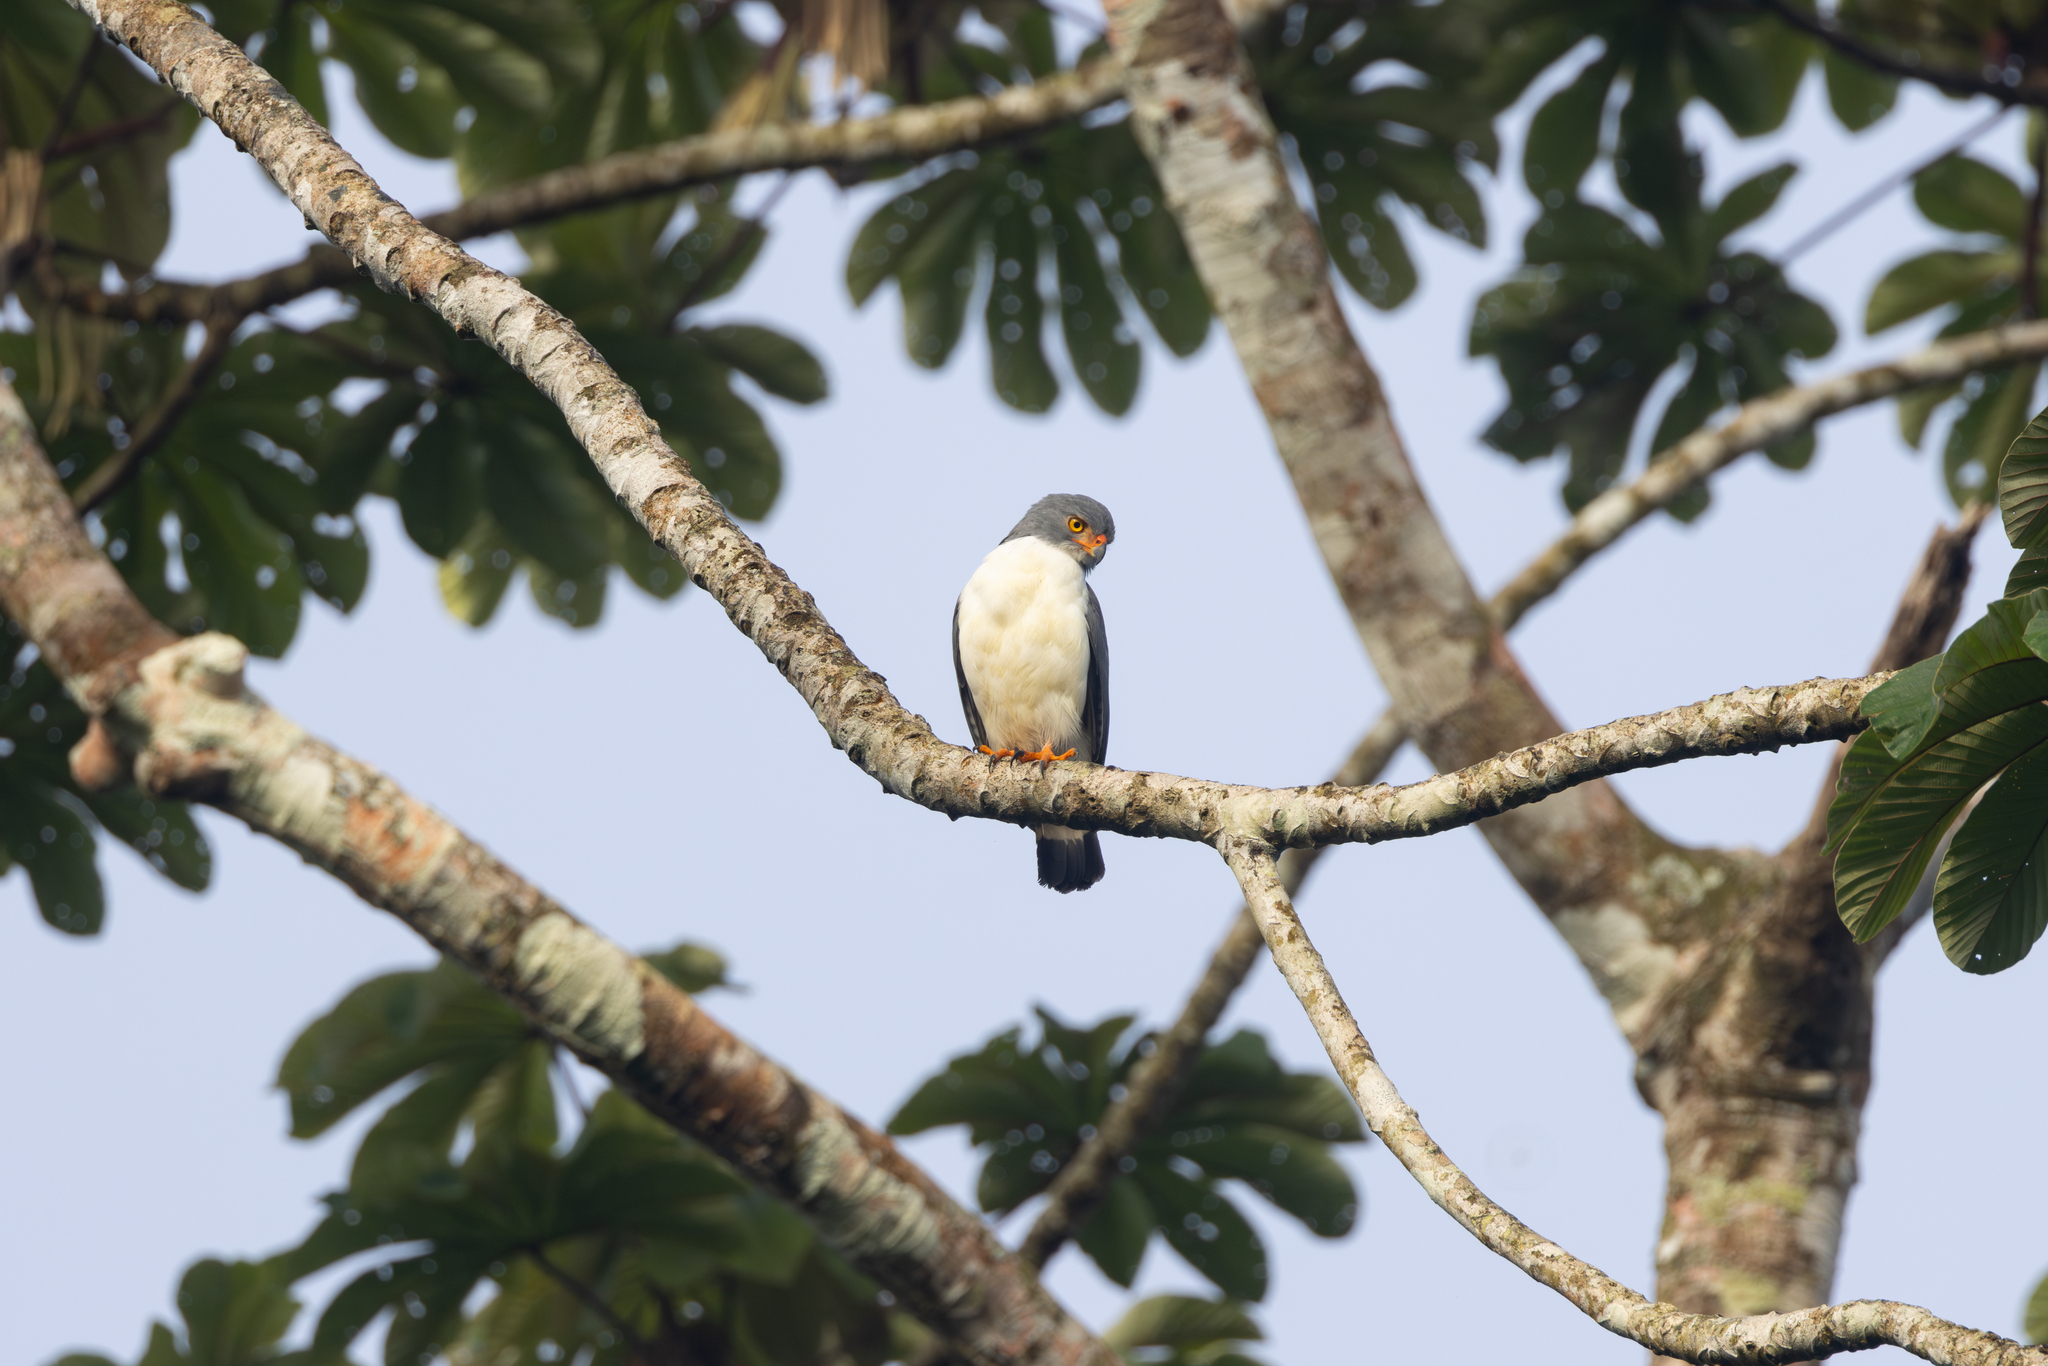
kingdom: Animalia
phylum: Chordata
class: Aves
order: Accipitriformes
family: Accipitridae
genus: Leucopternis
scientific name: Leucopternis semiplumbeus
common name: Semiplumbeous hawk
